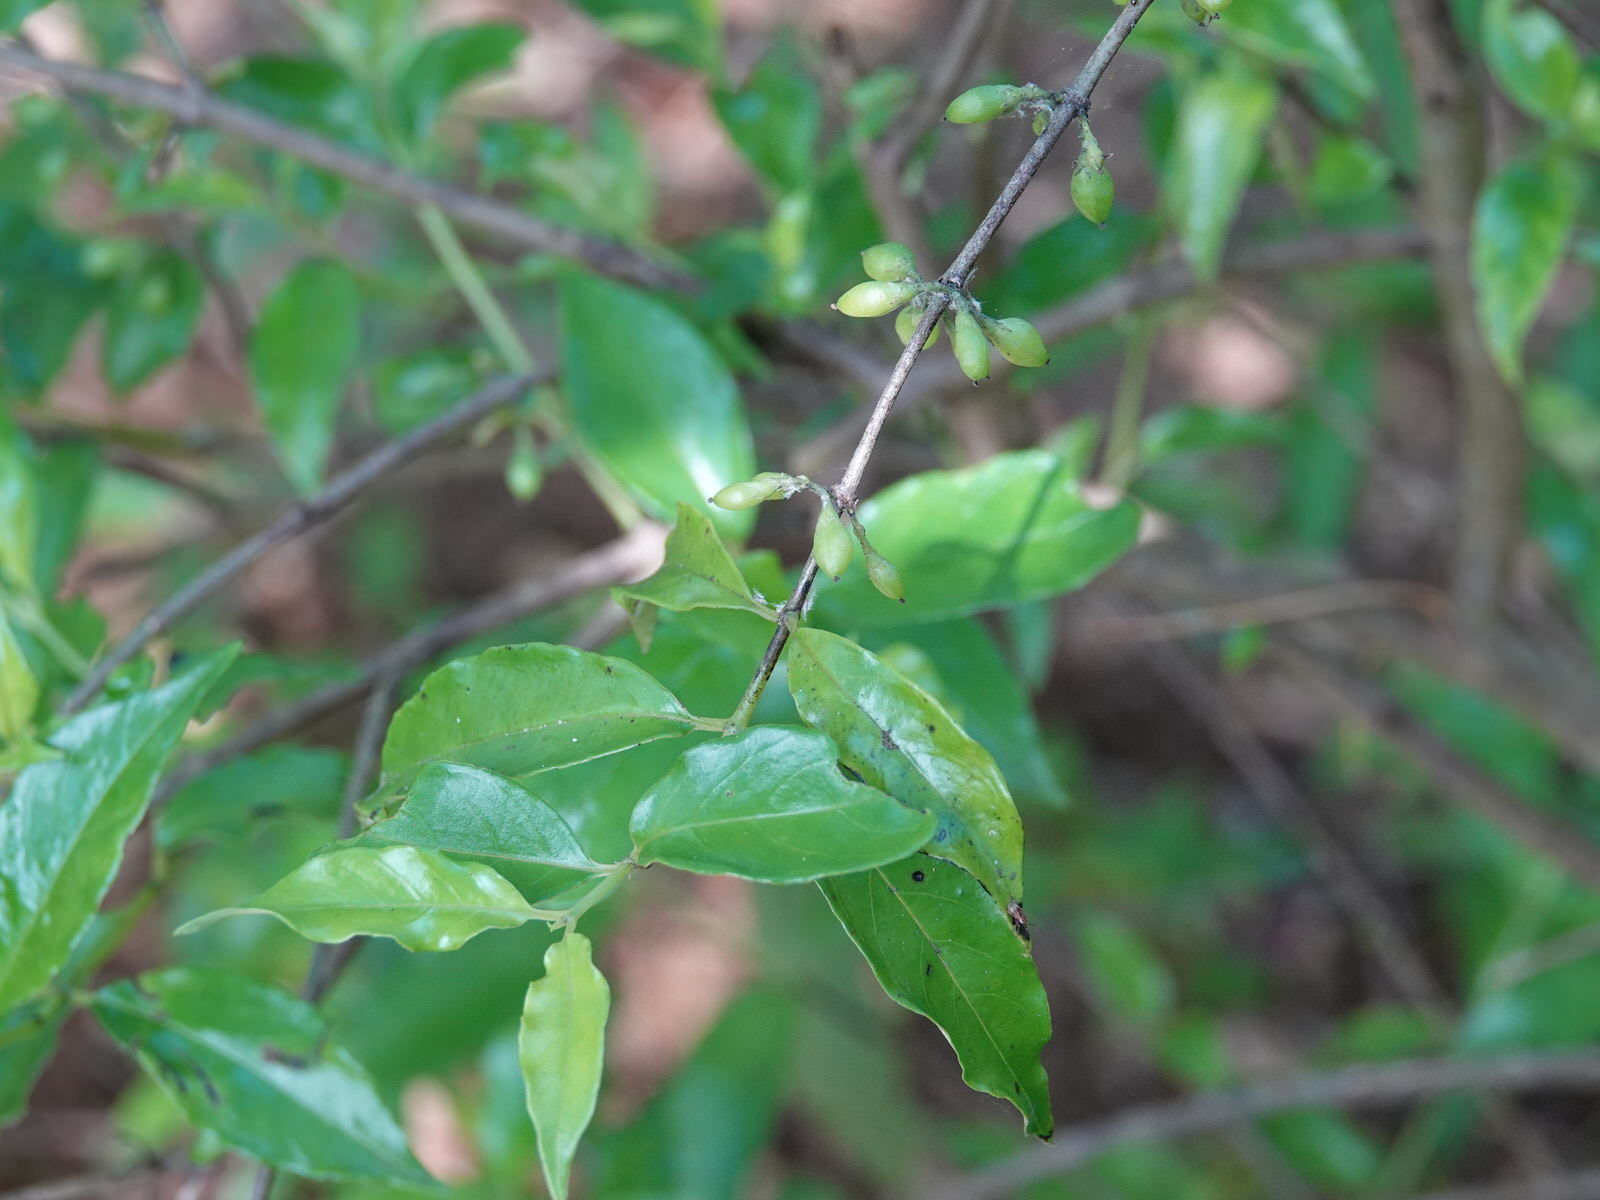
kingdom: Plantae
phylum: Tracheophyta
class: Magnoliopsida
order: Gentianales
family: Loganiaceae
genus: Geniostoma
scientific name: Geniostoma ligustrifolium
